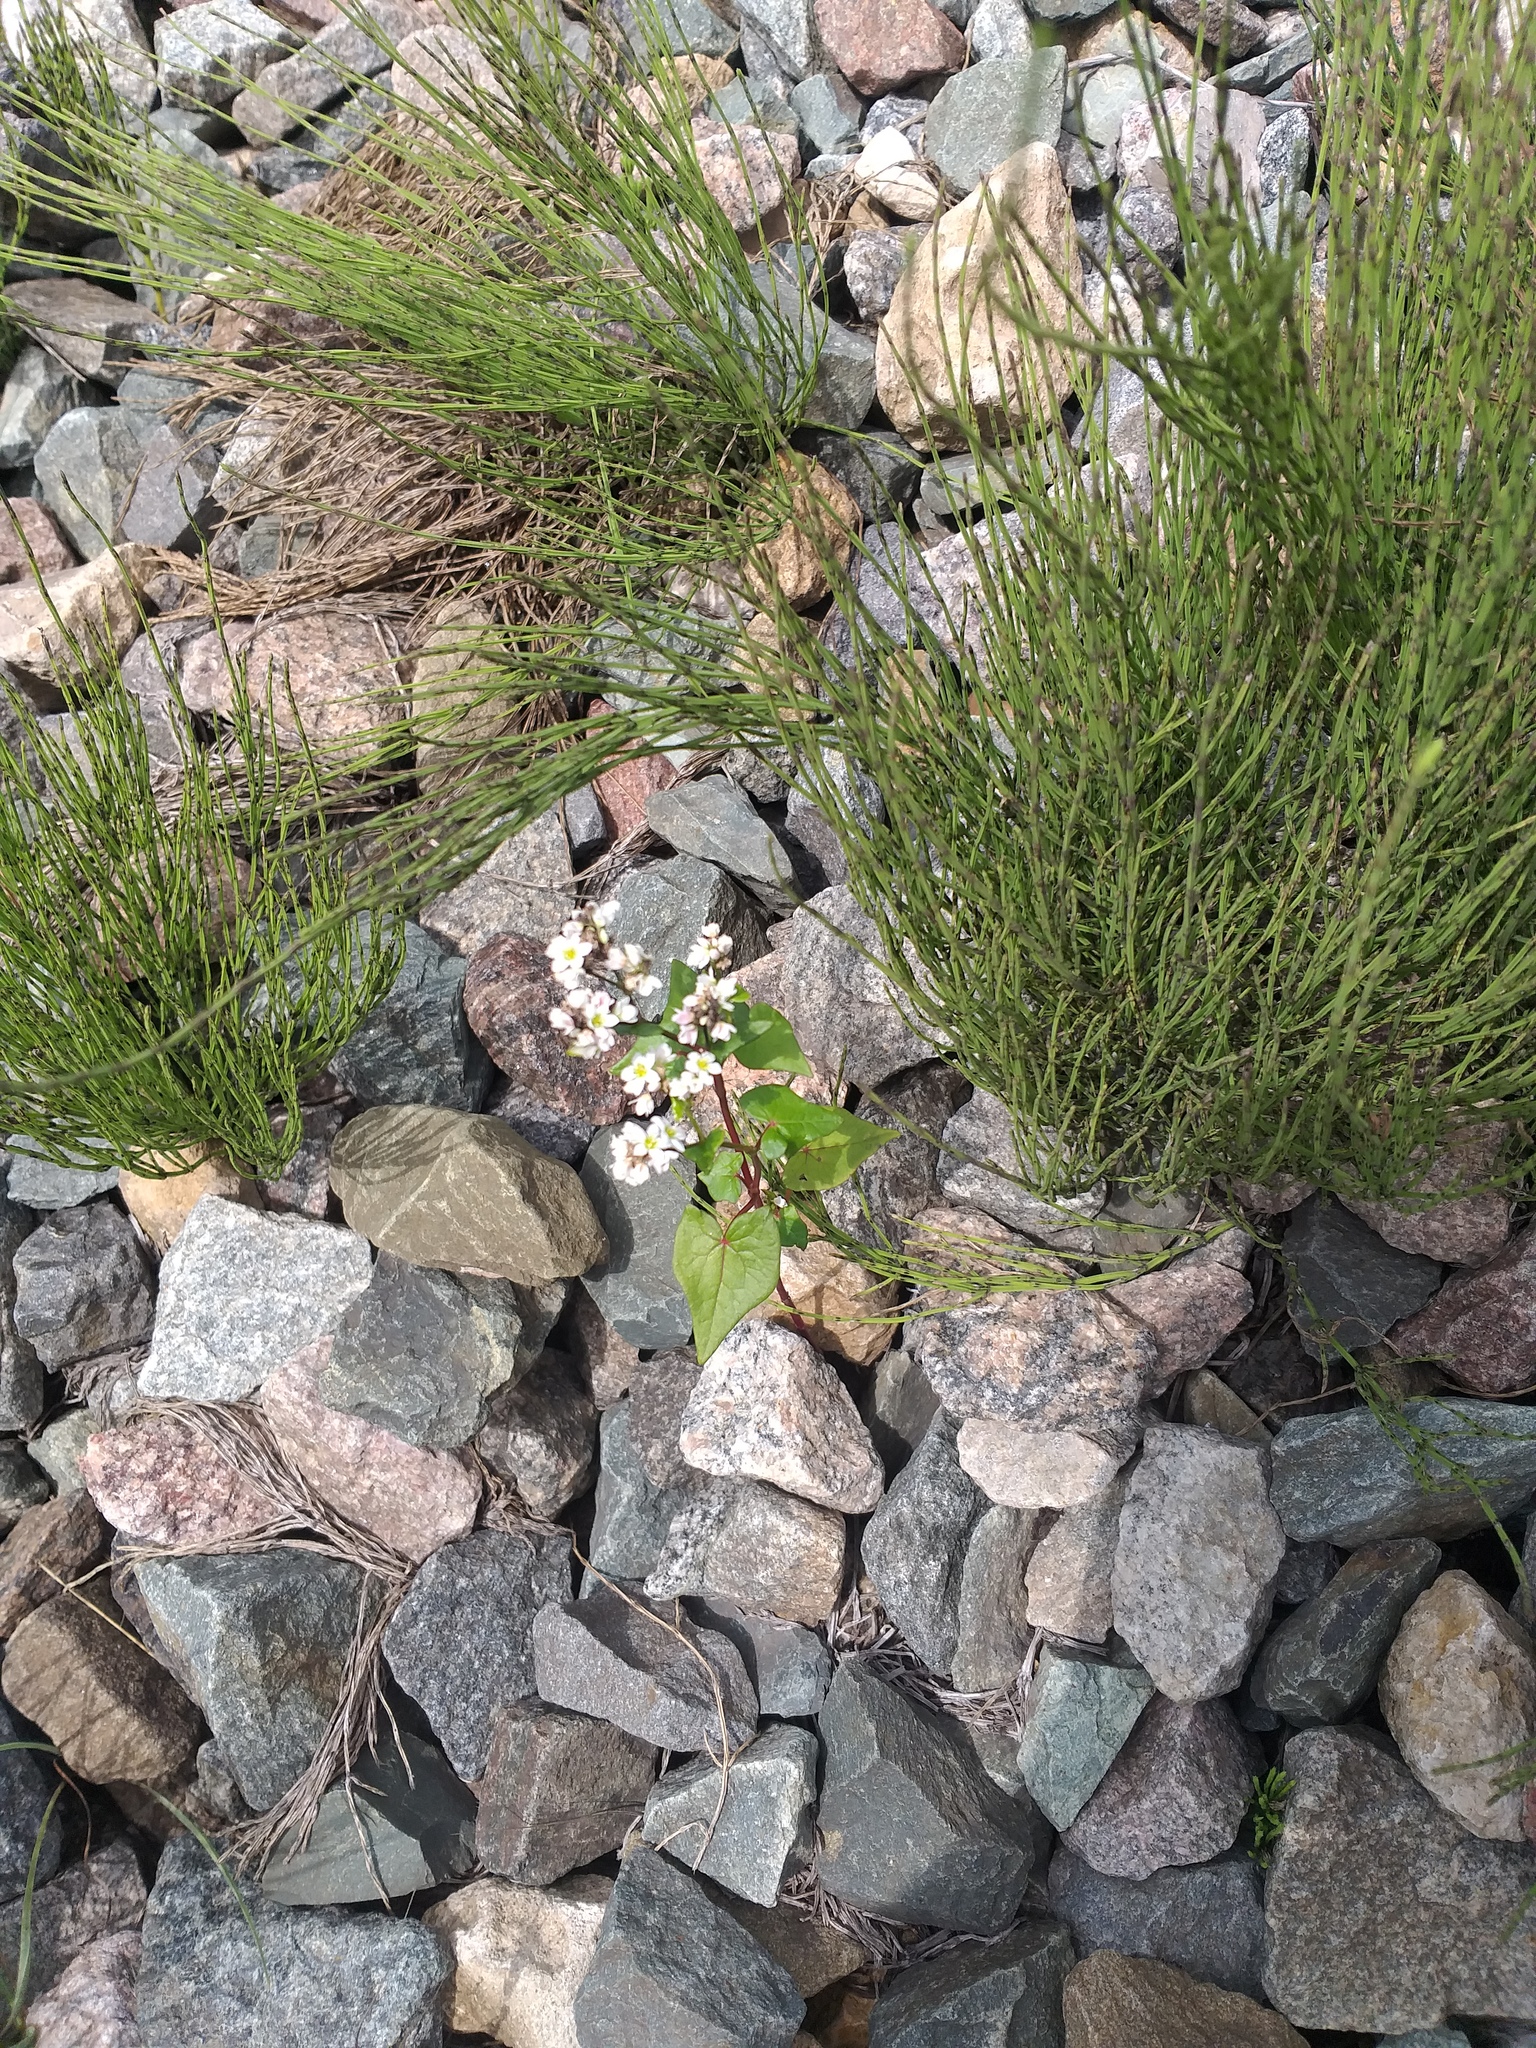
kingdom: Plantae
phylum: Tracheophyta
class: Magnoliopsida
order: Caryophyllales
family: Polygonaceae
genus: Fagopyrum
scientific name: Fagopyrum esculentum
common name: Buckwheat
